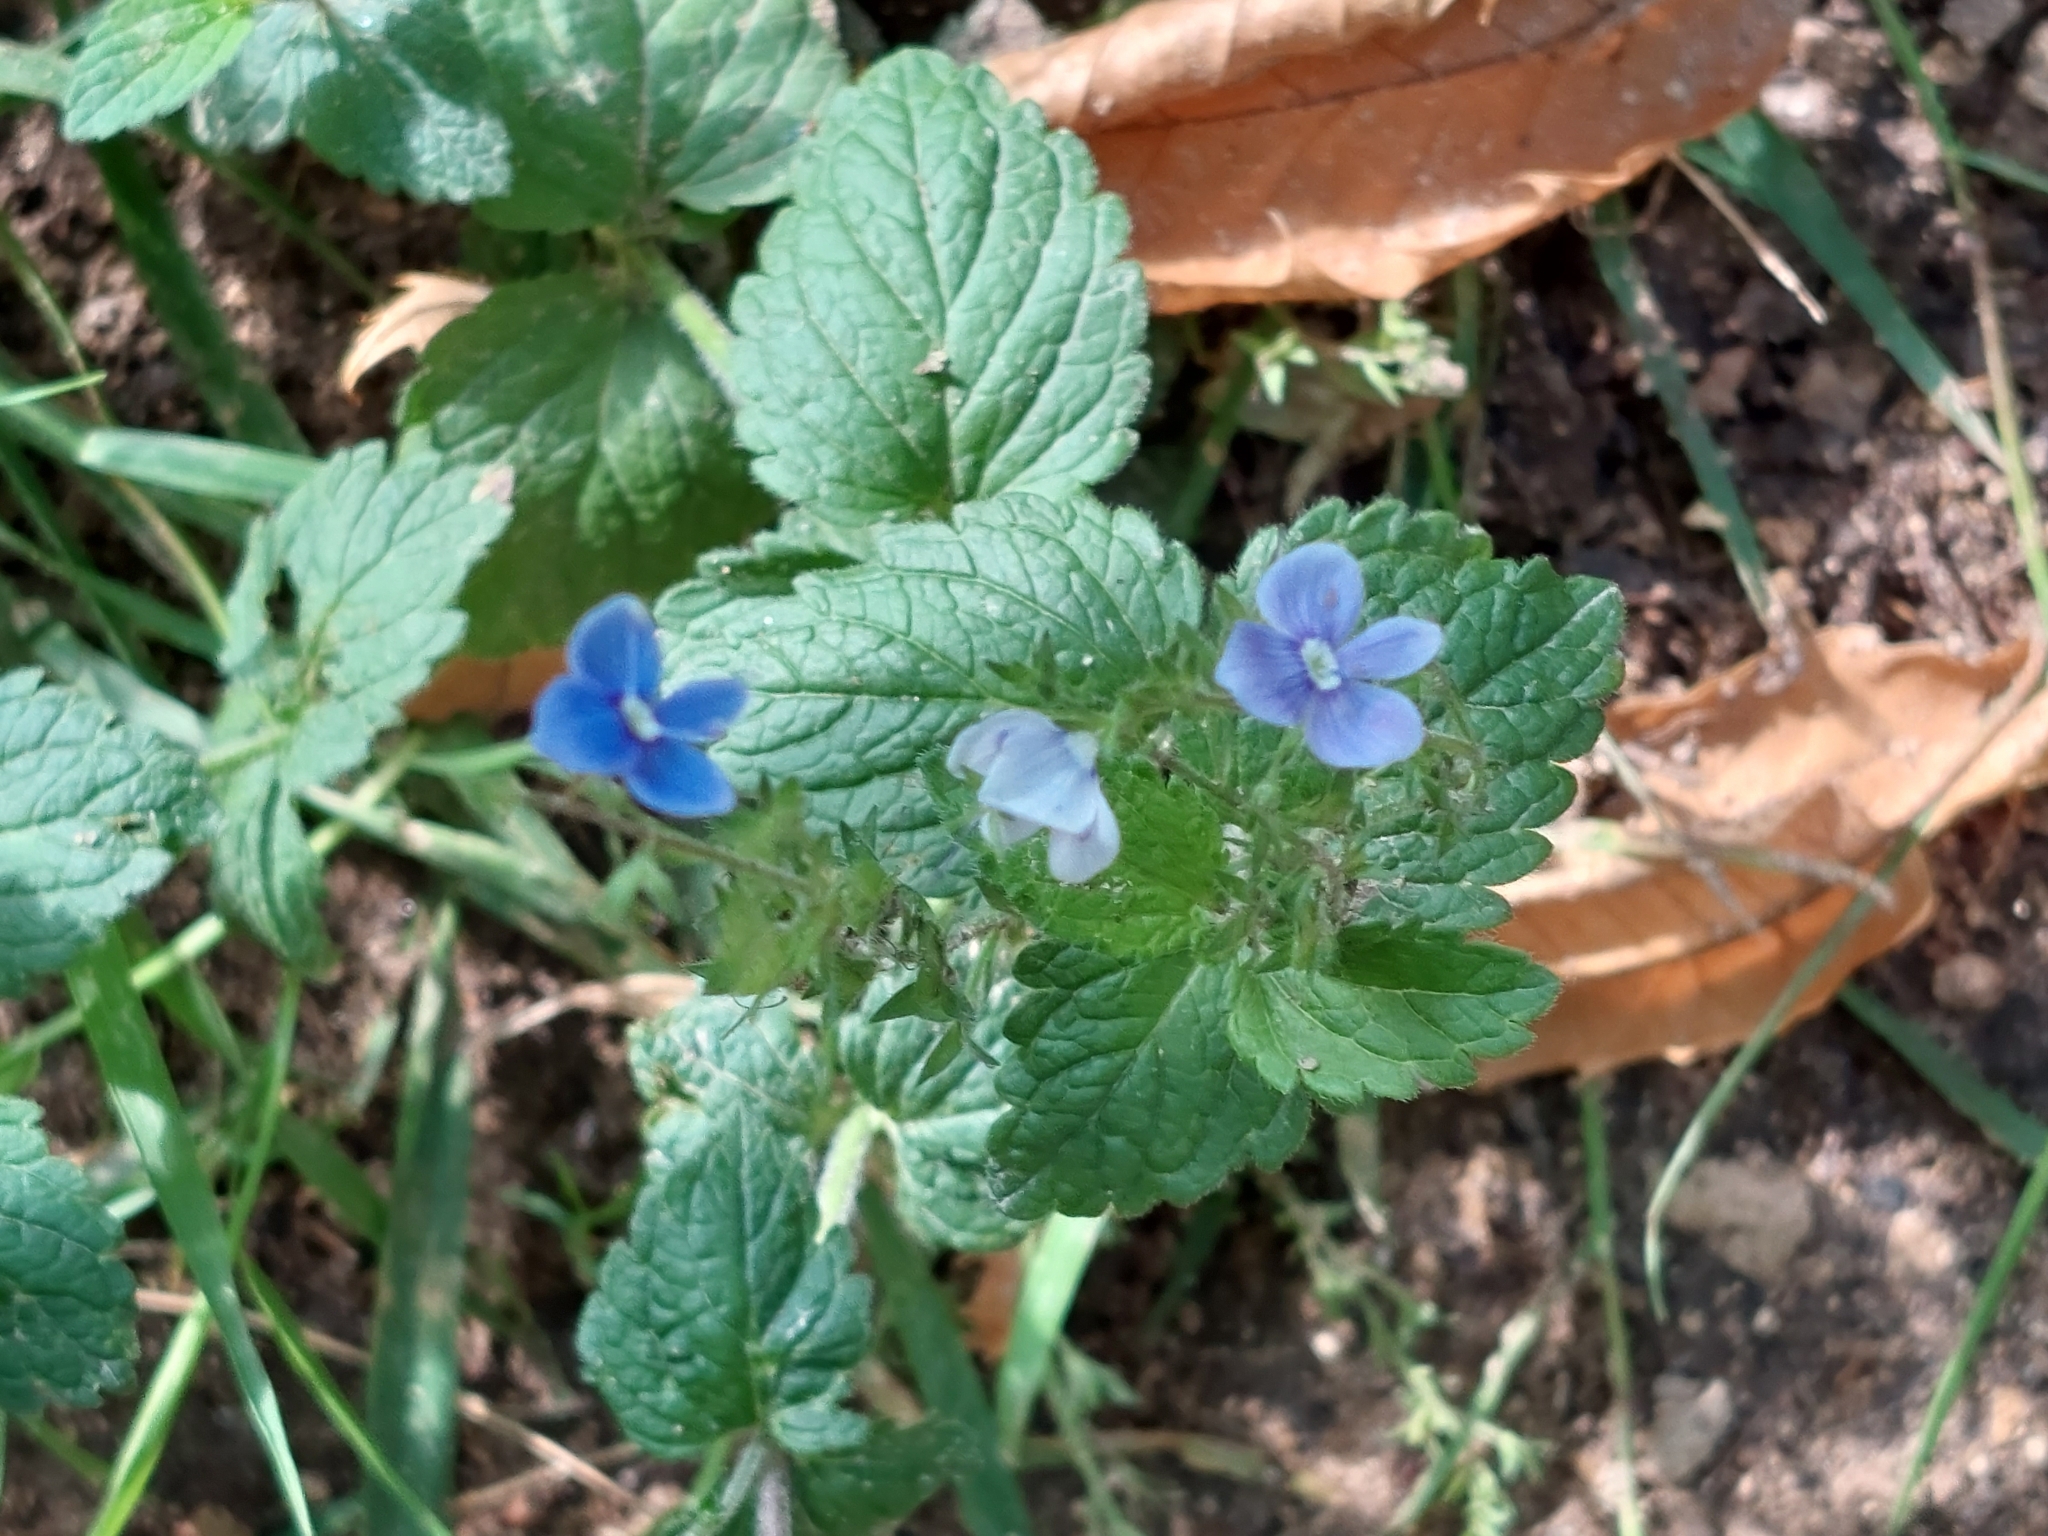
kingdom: Plantae
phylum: Tracheophyta
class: Magnoliopsida
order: Lamiales
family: Plantaginaceae
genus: Veronica
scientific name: Veronica chamaedrys
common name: Germander speedwell
